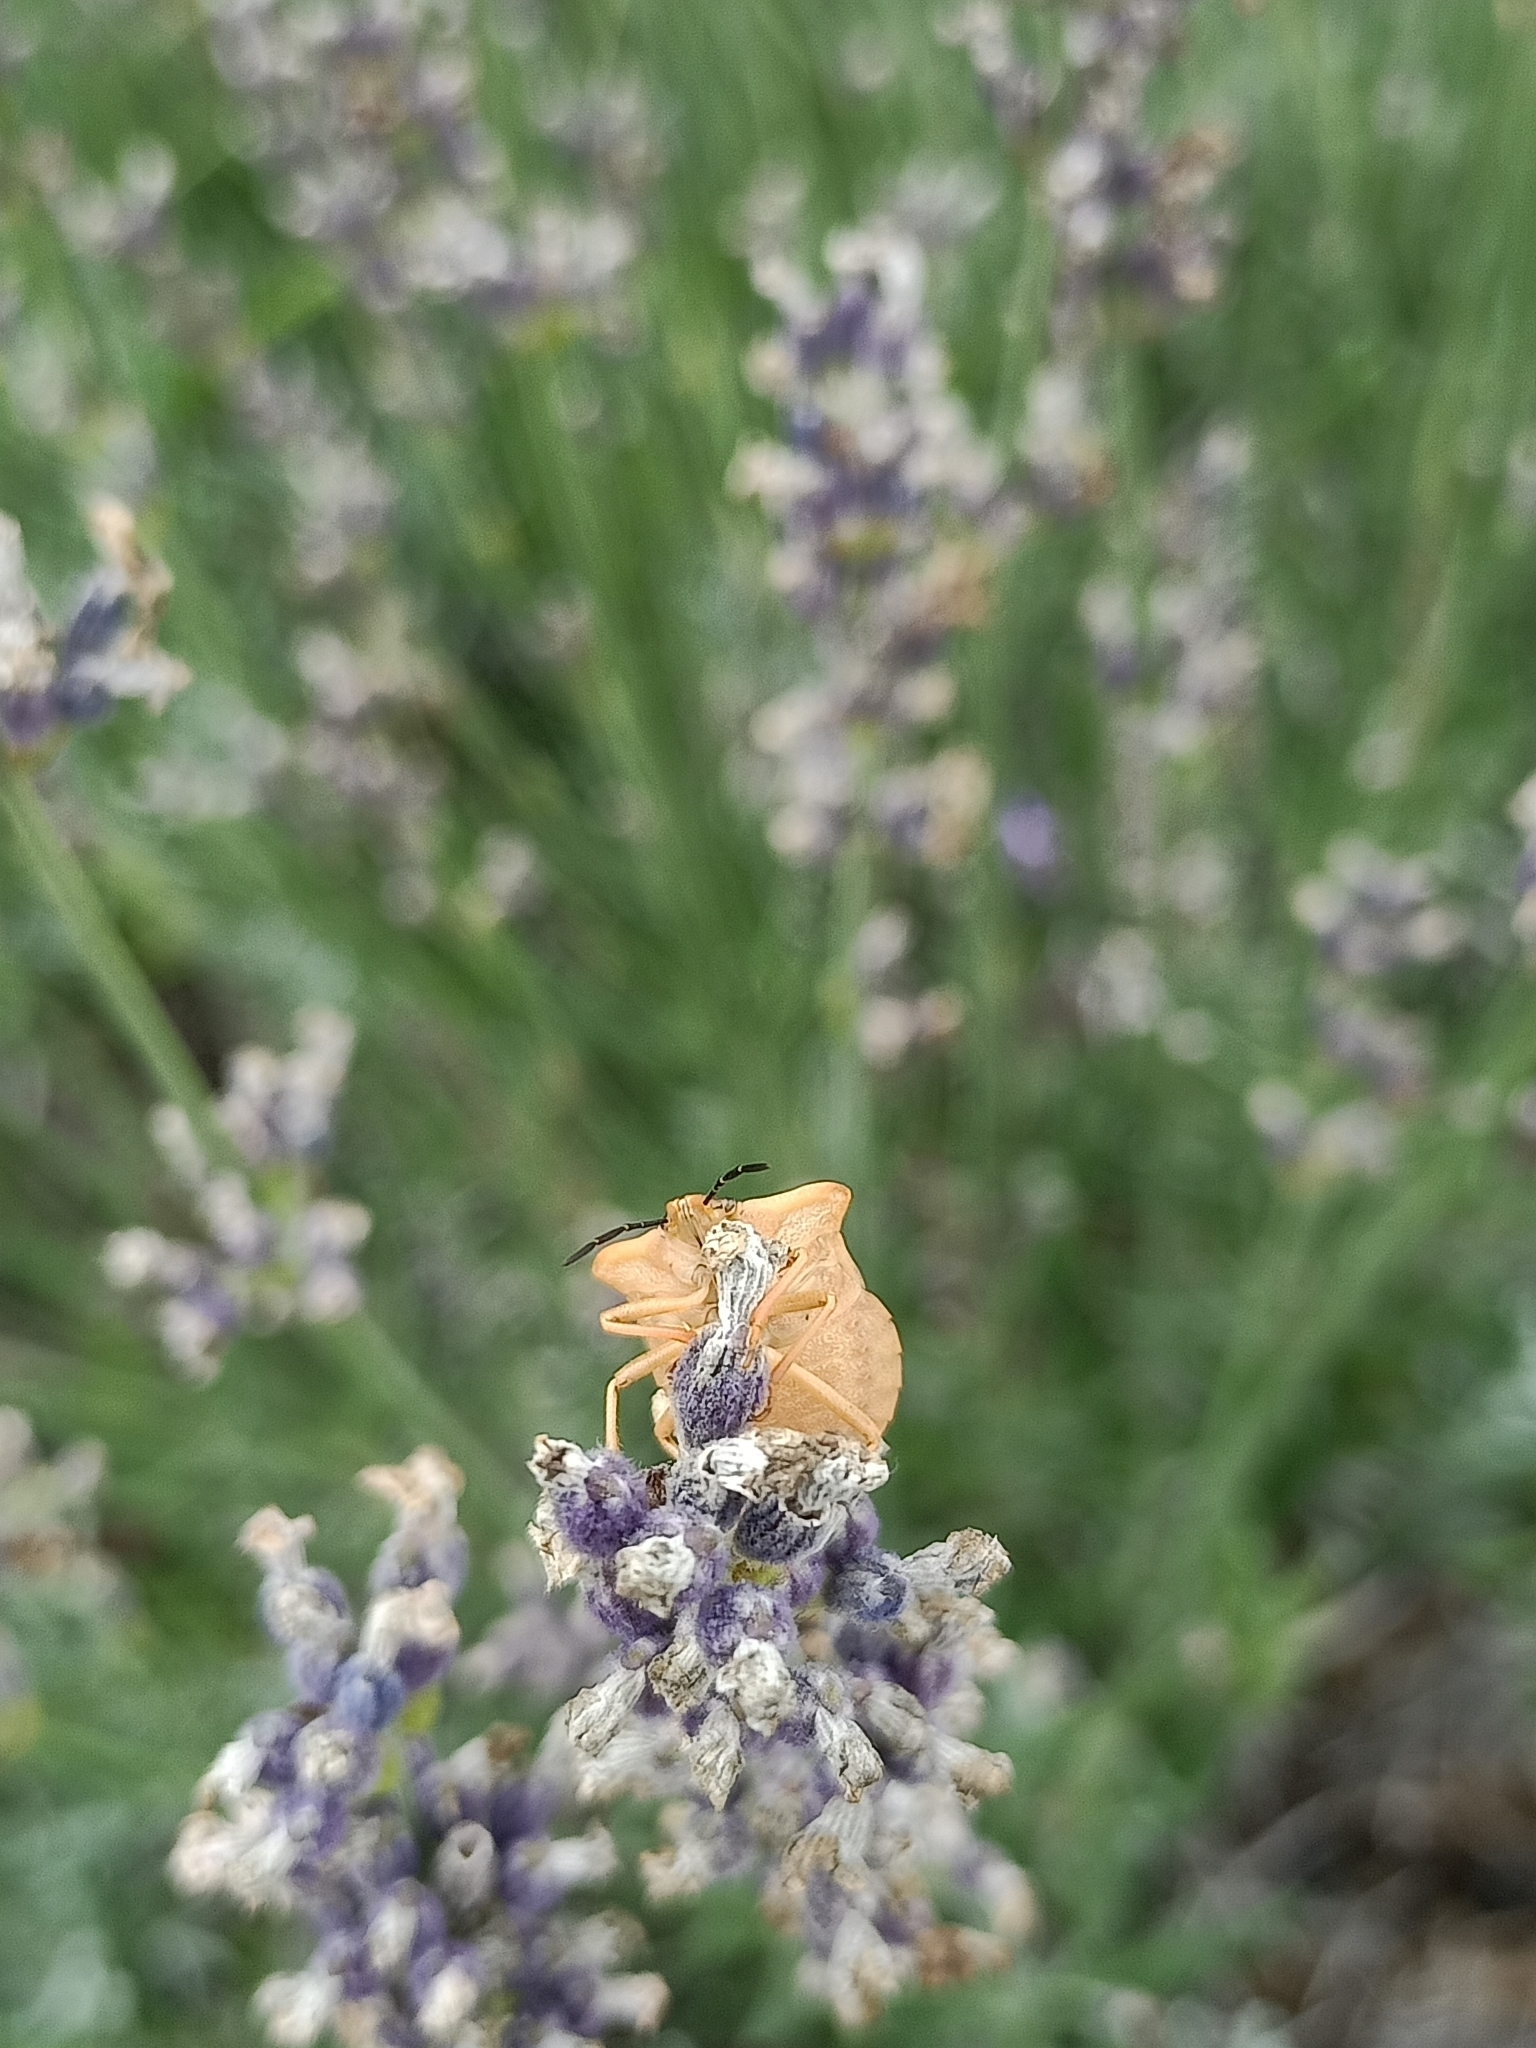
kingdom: Animalia
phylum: Arthropoda
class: Insecta
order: Hemiptera
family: Pentatomidae
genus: Carpocoris
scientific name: Carpocoris fuscispinus
